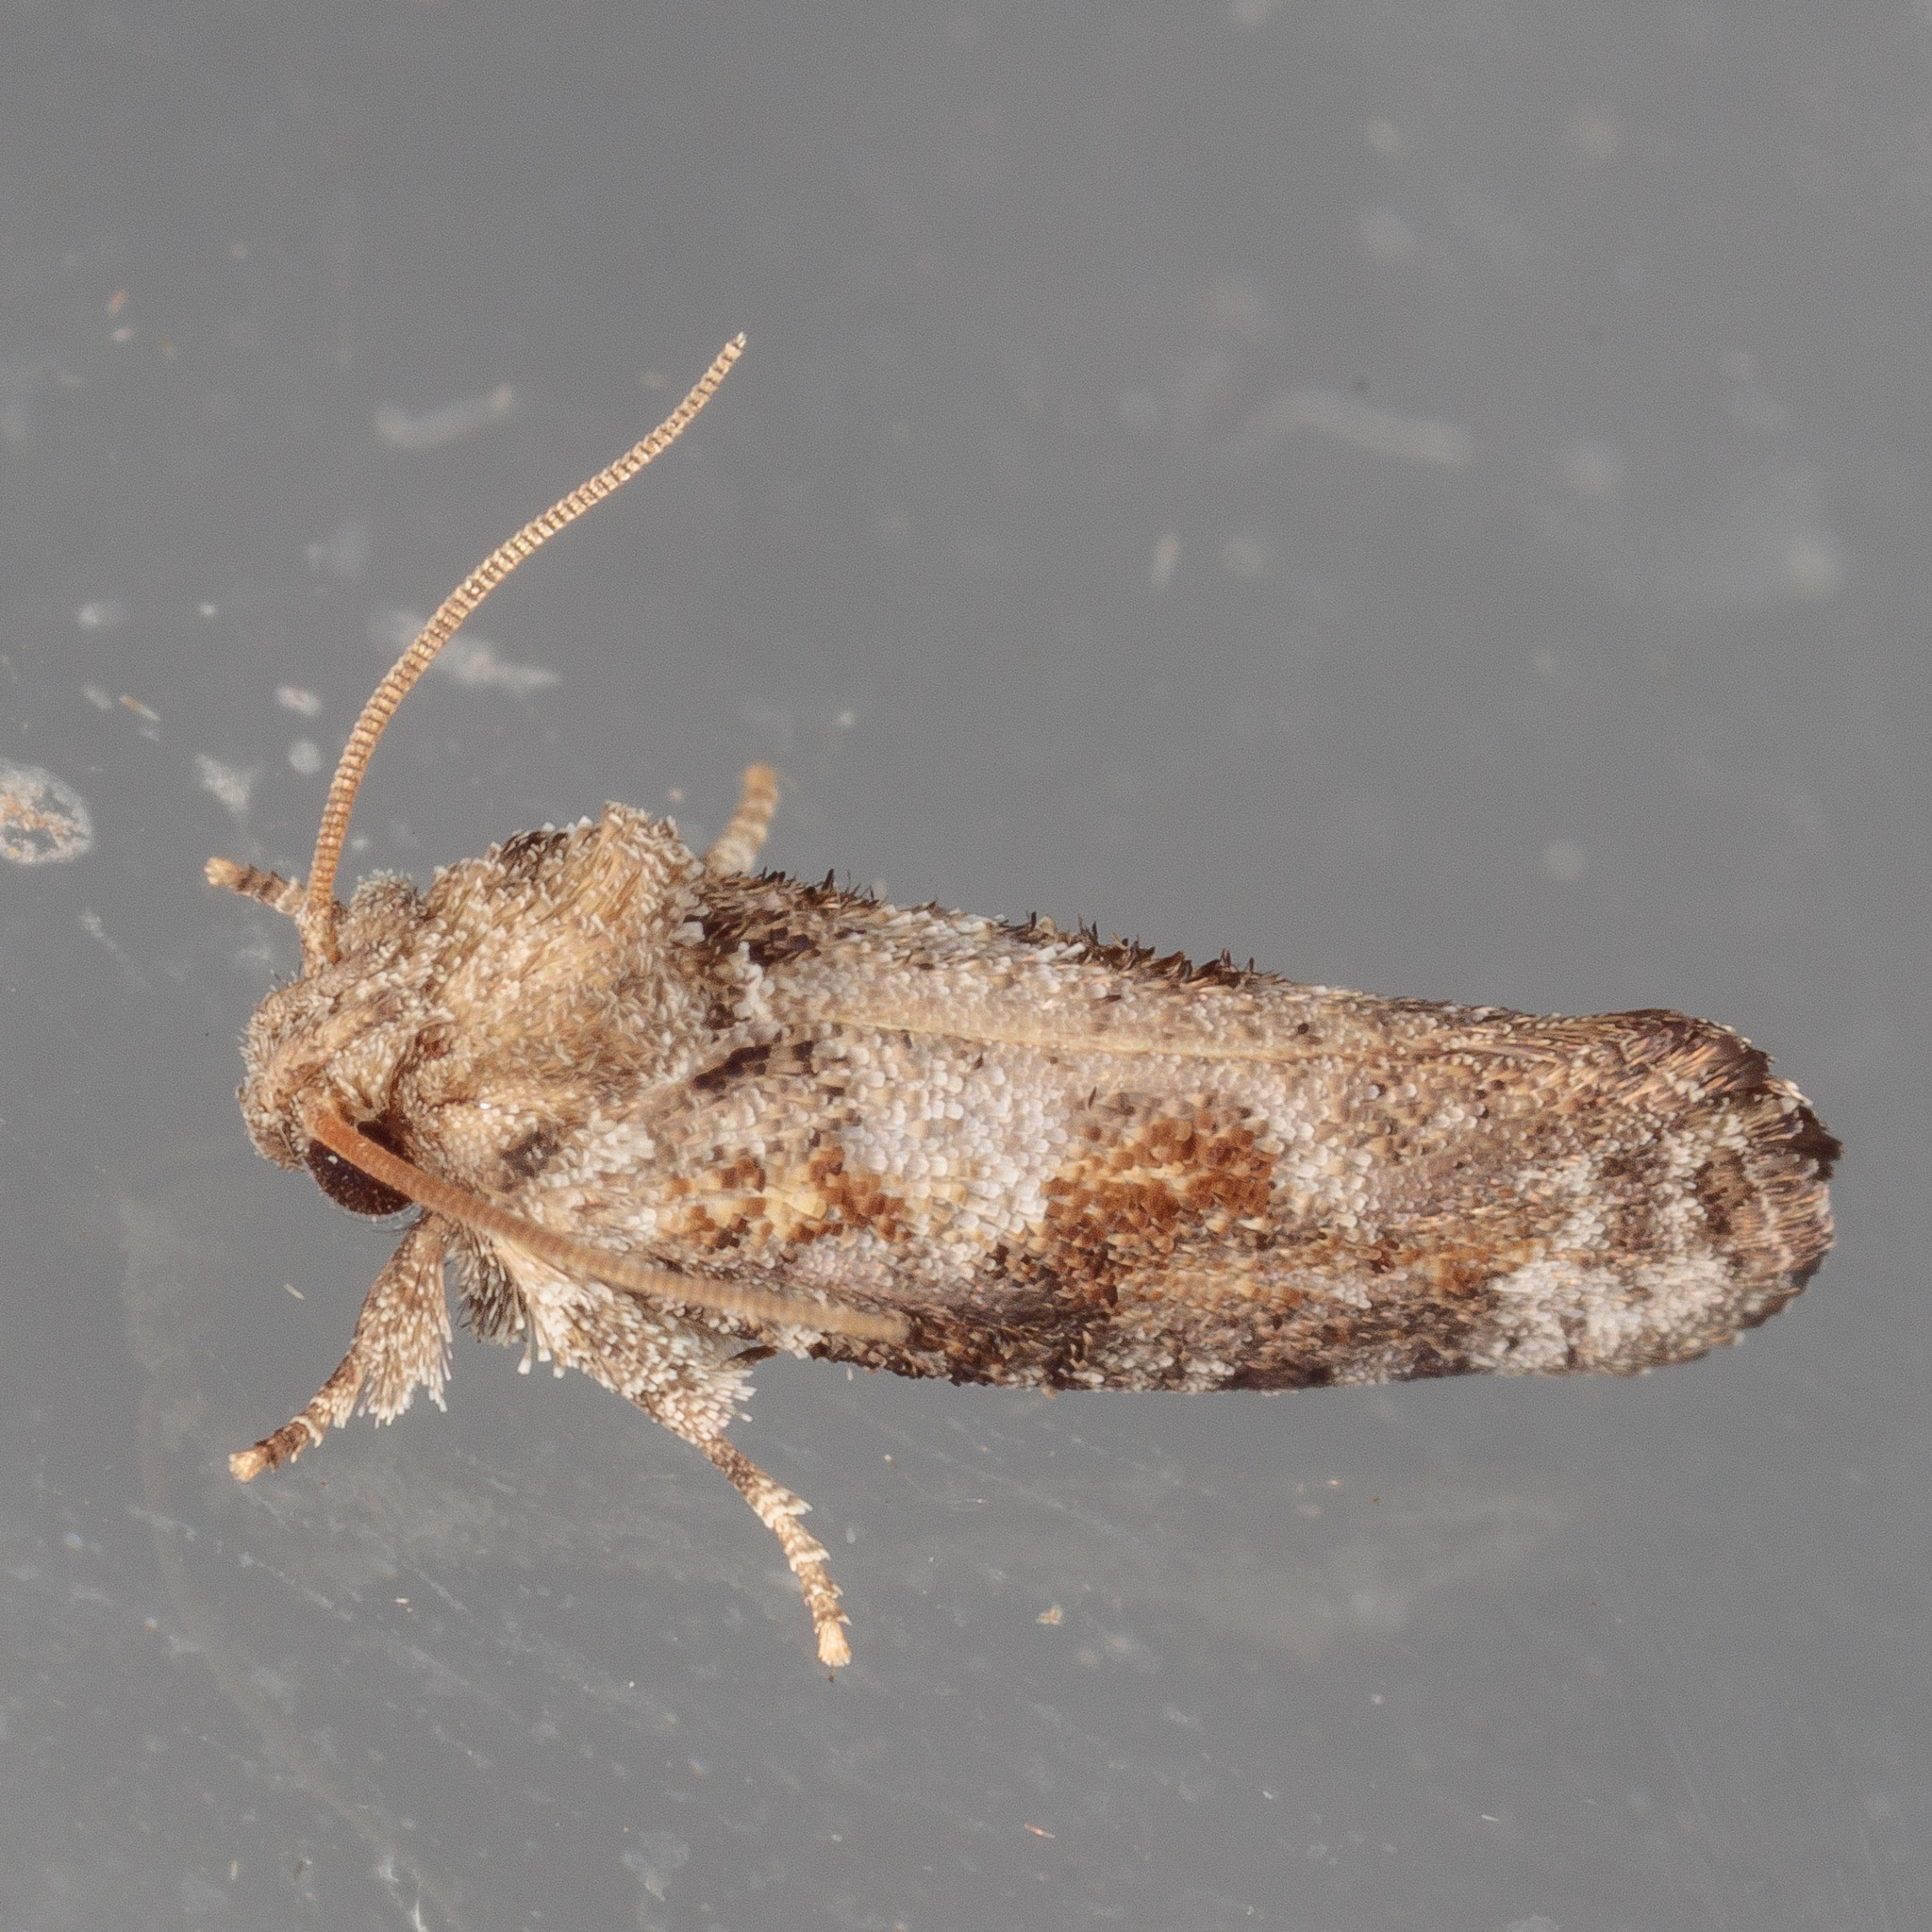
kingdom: Animalia
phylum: Arthropoda
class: Insecta
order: Lepidoptera
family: Tineidae
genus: Acrolophus
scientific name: Acrolophus piger
